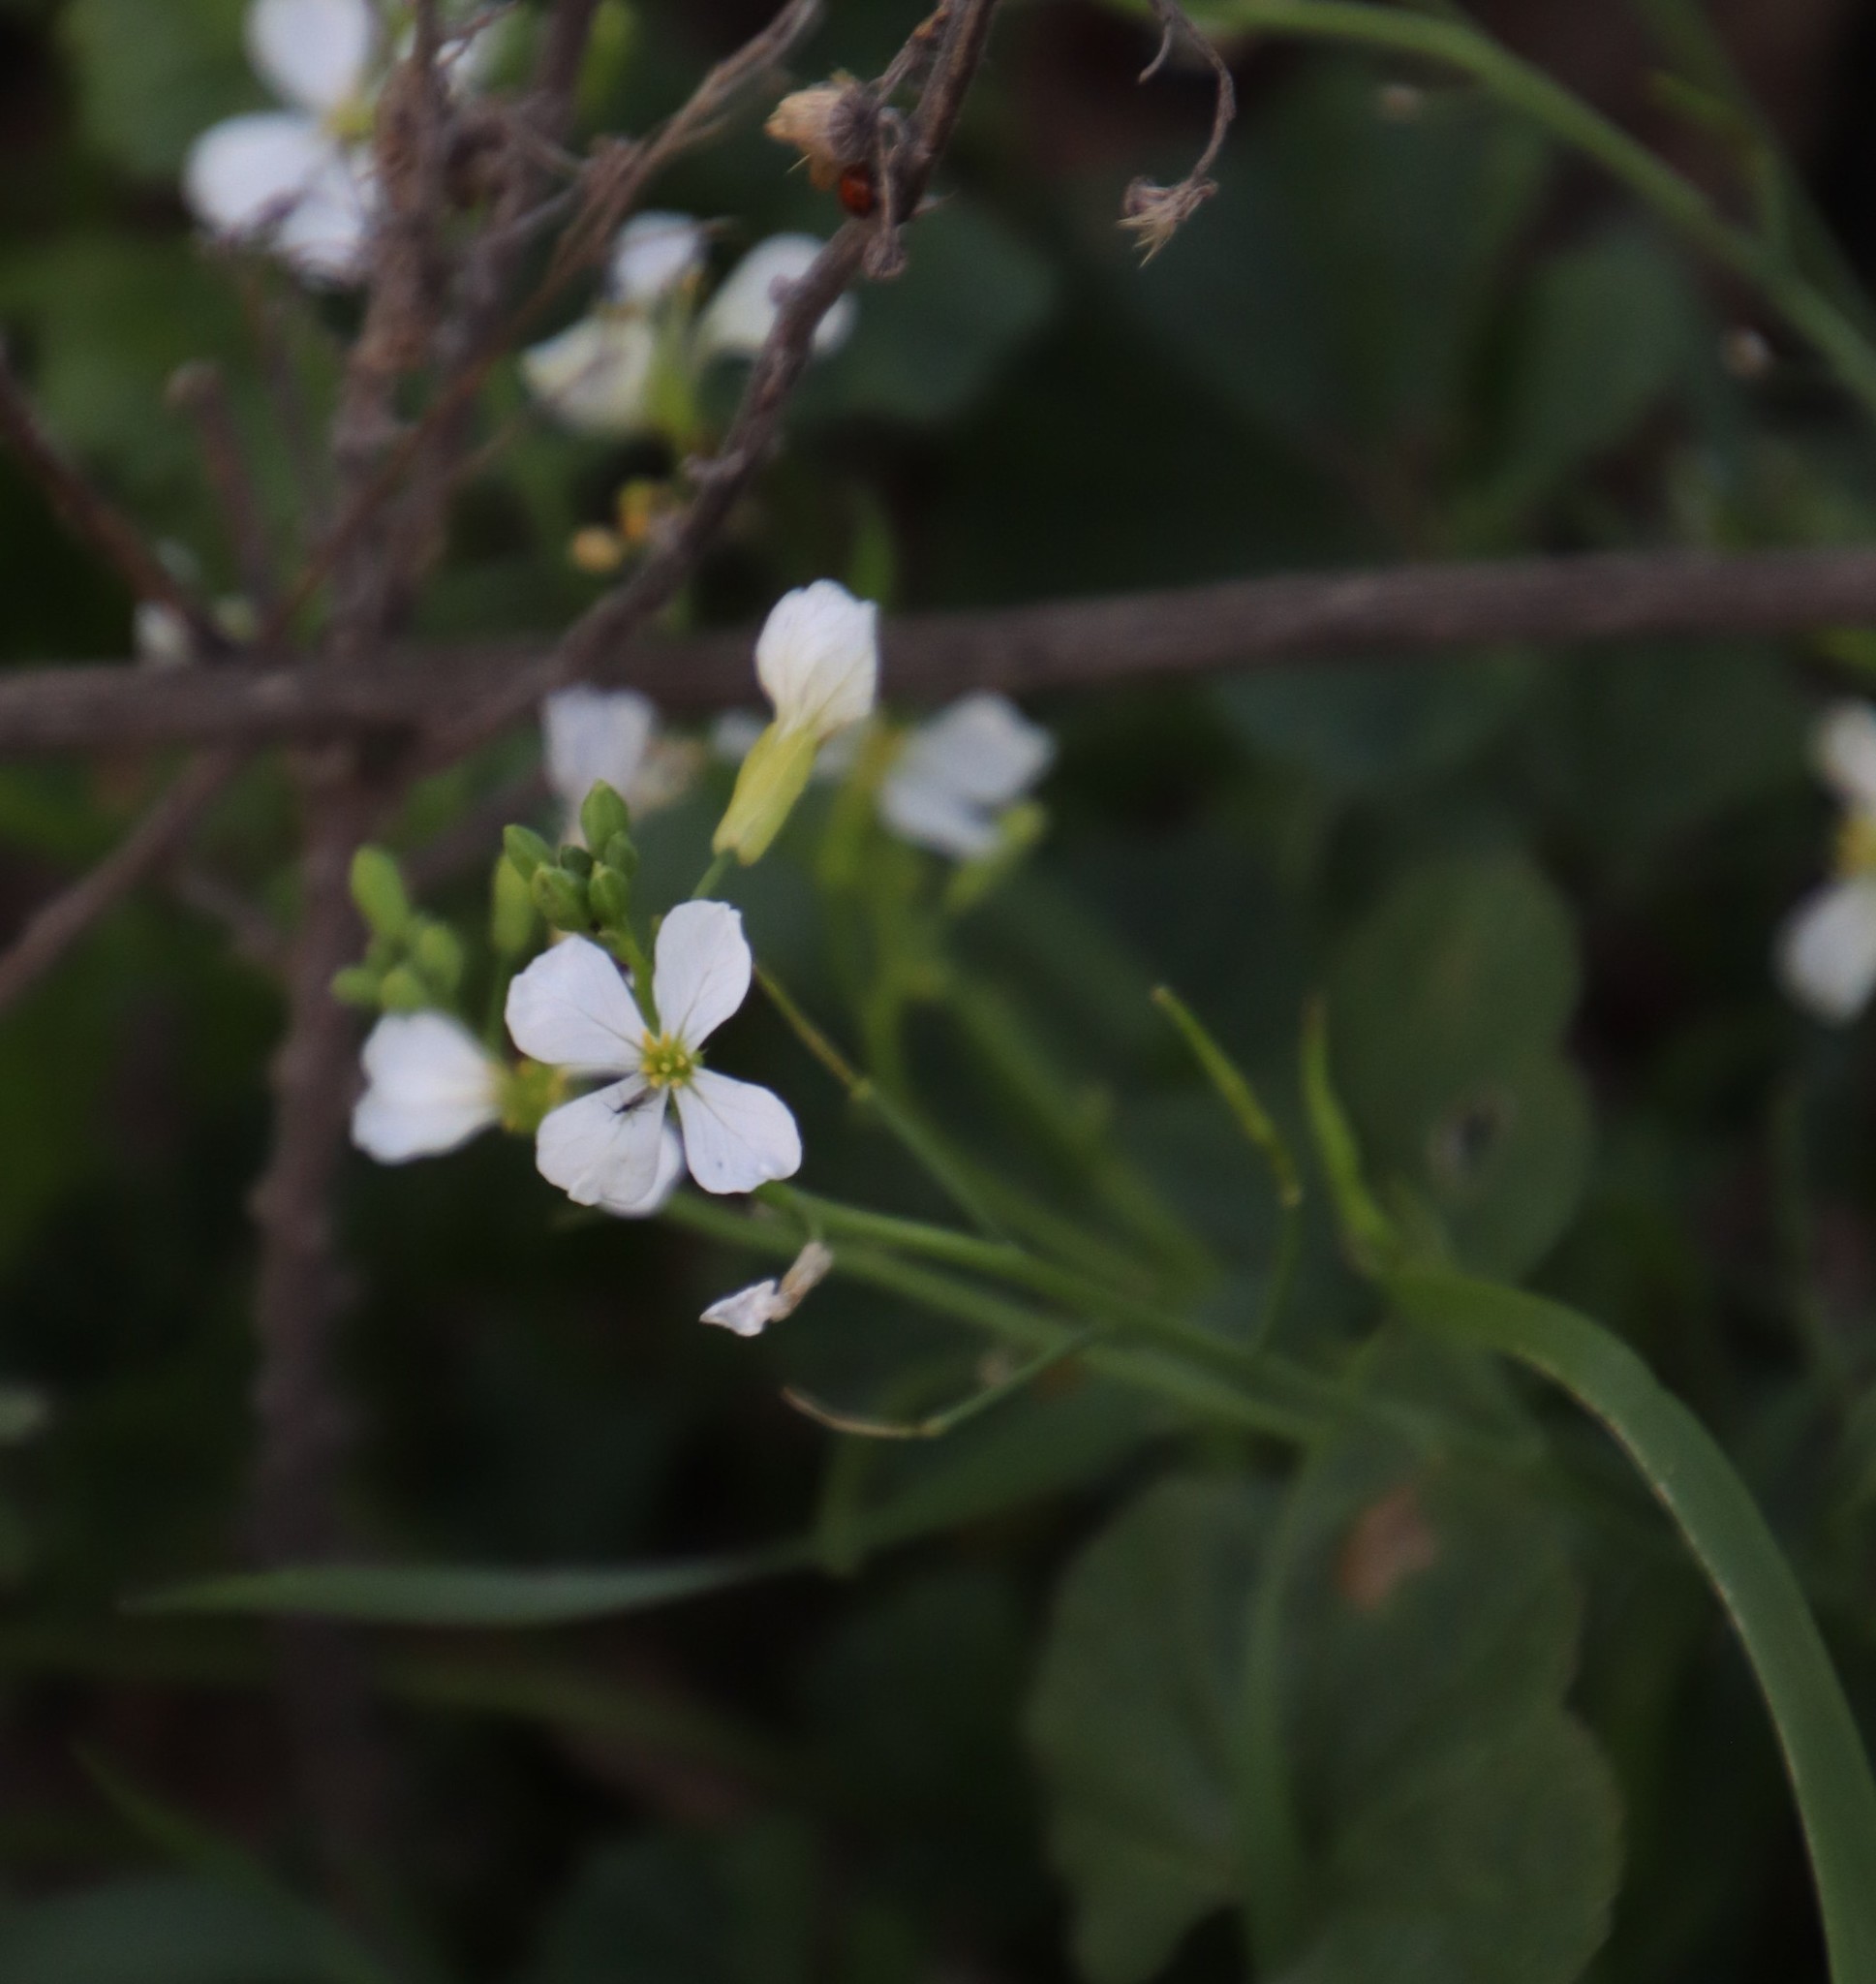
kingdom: Plantae
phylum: Tracheophyta
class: Magnoliopsida
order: Brassicales
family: Brassicaceae
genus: Raphanus
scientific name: Raphanus raphanistrum
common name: Wild radish
